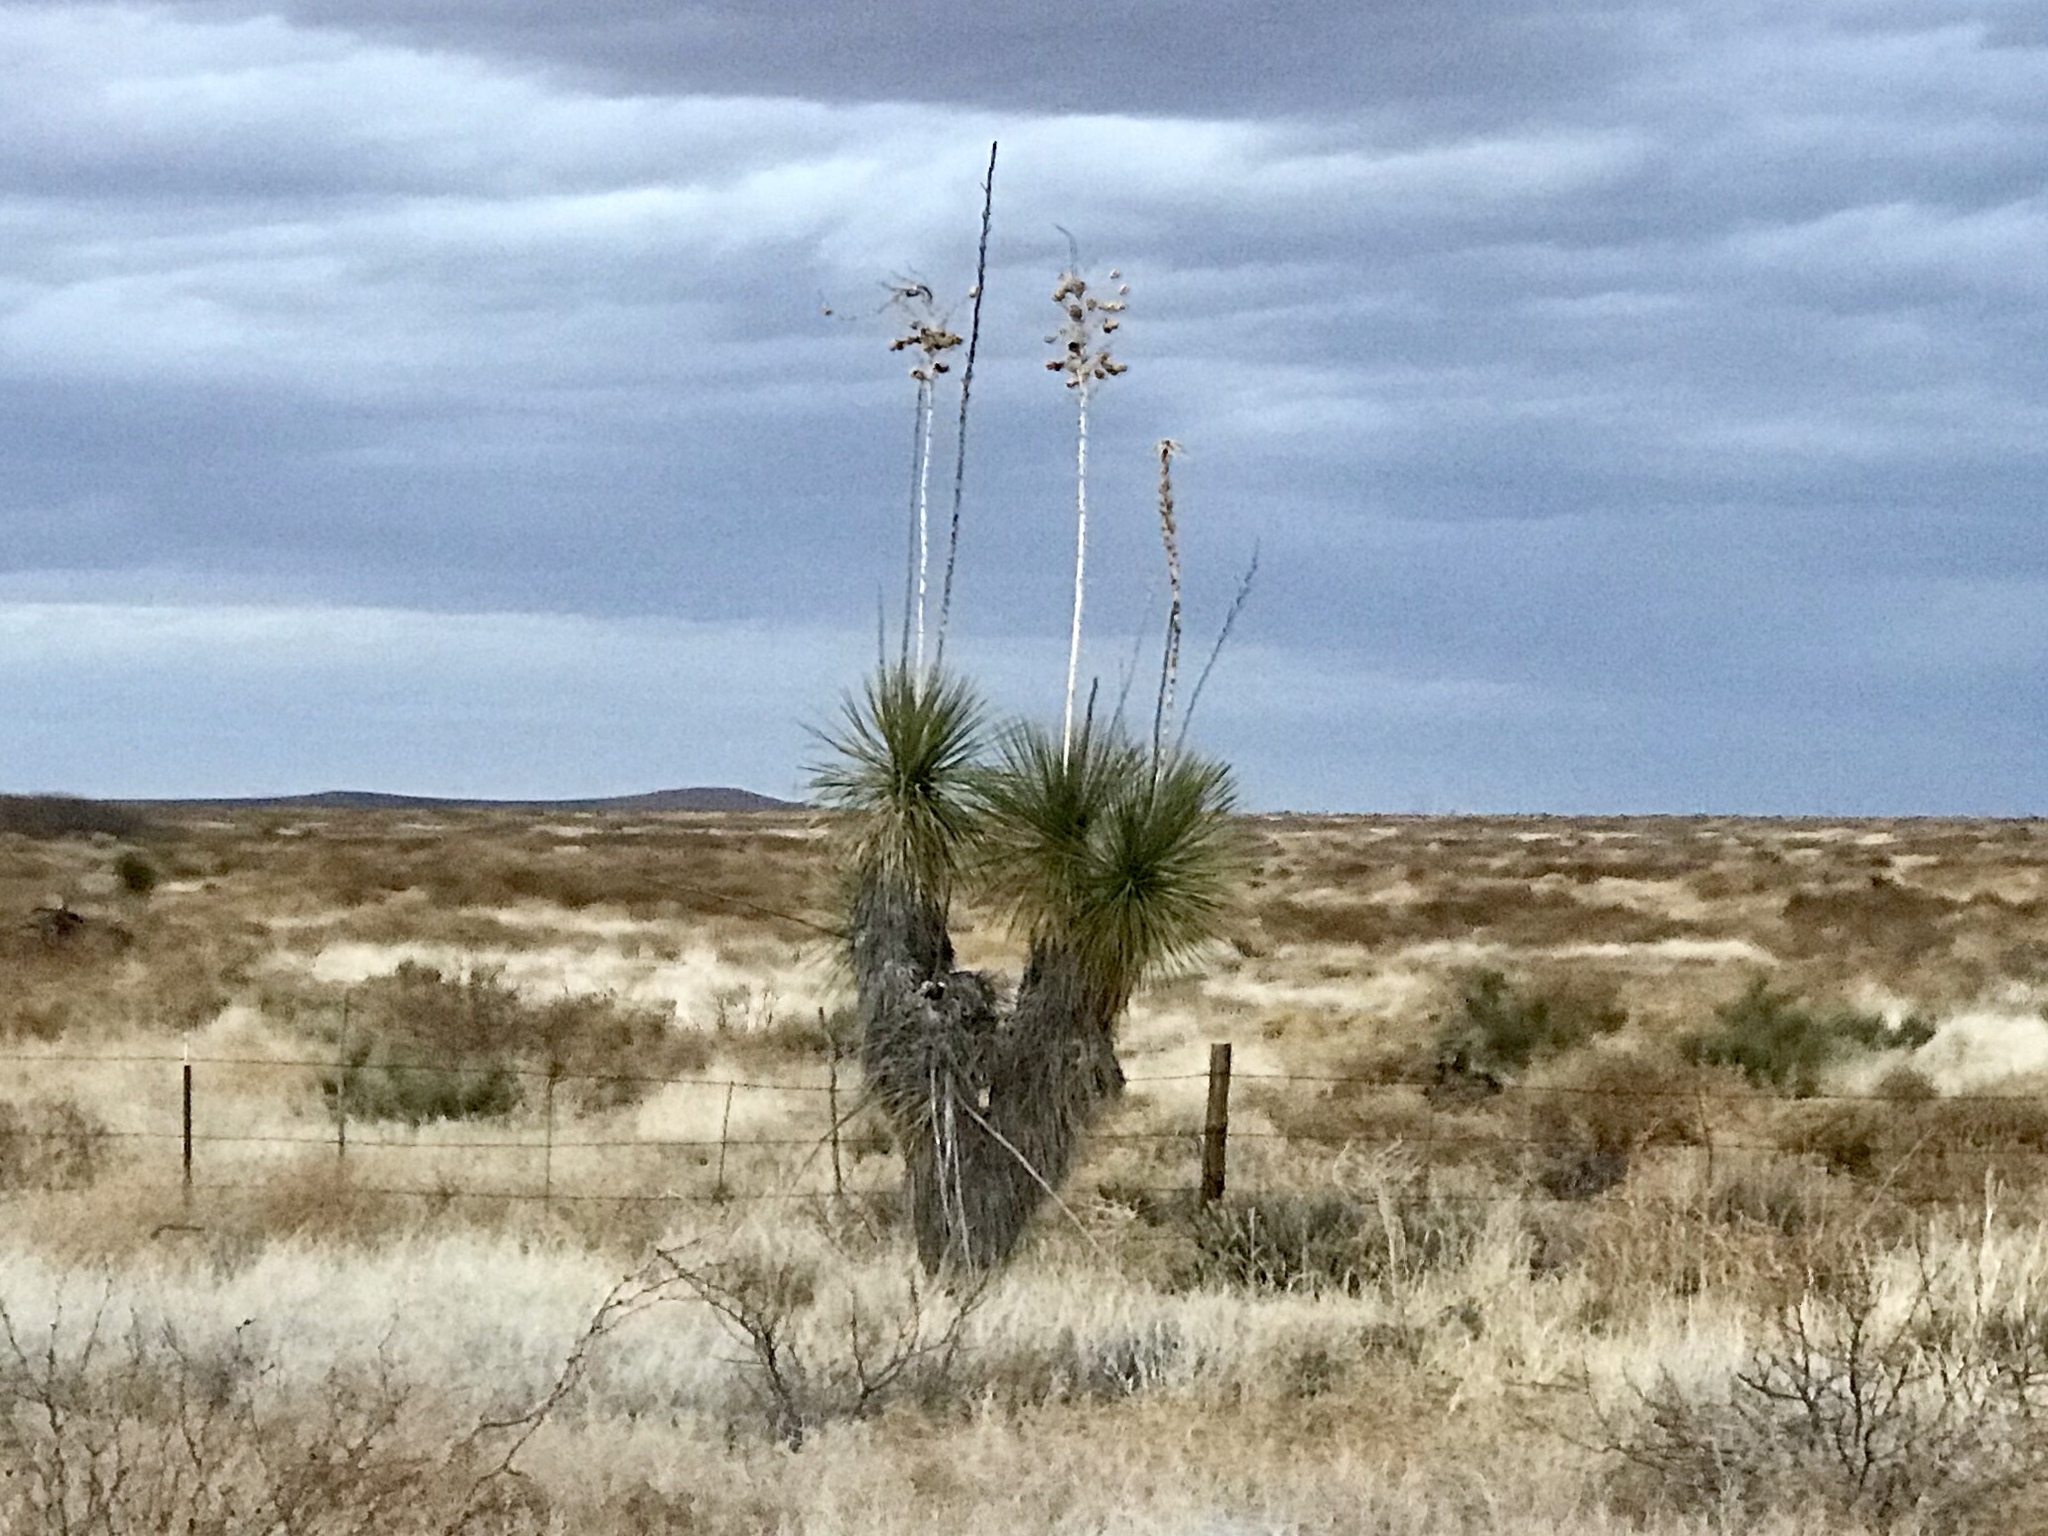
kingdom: Plantae
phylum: Tracheophyta
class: Liliopsida
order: Asparagales
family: Asparagaceae
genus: Yucca
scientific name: Yucca elata
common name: Palmella
